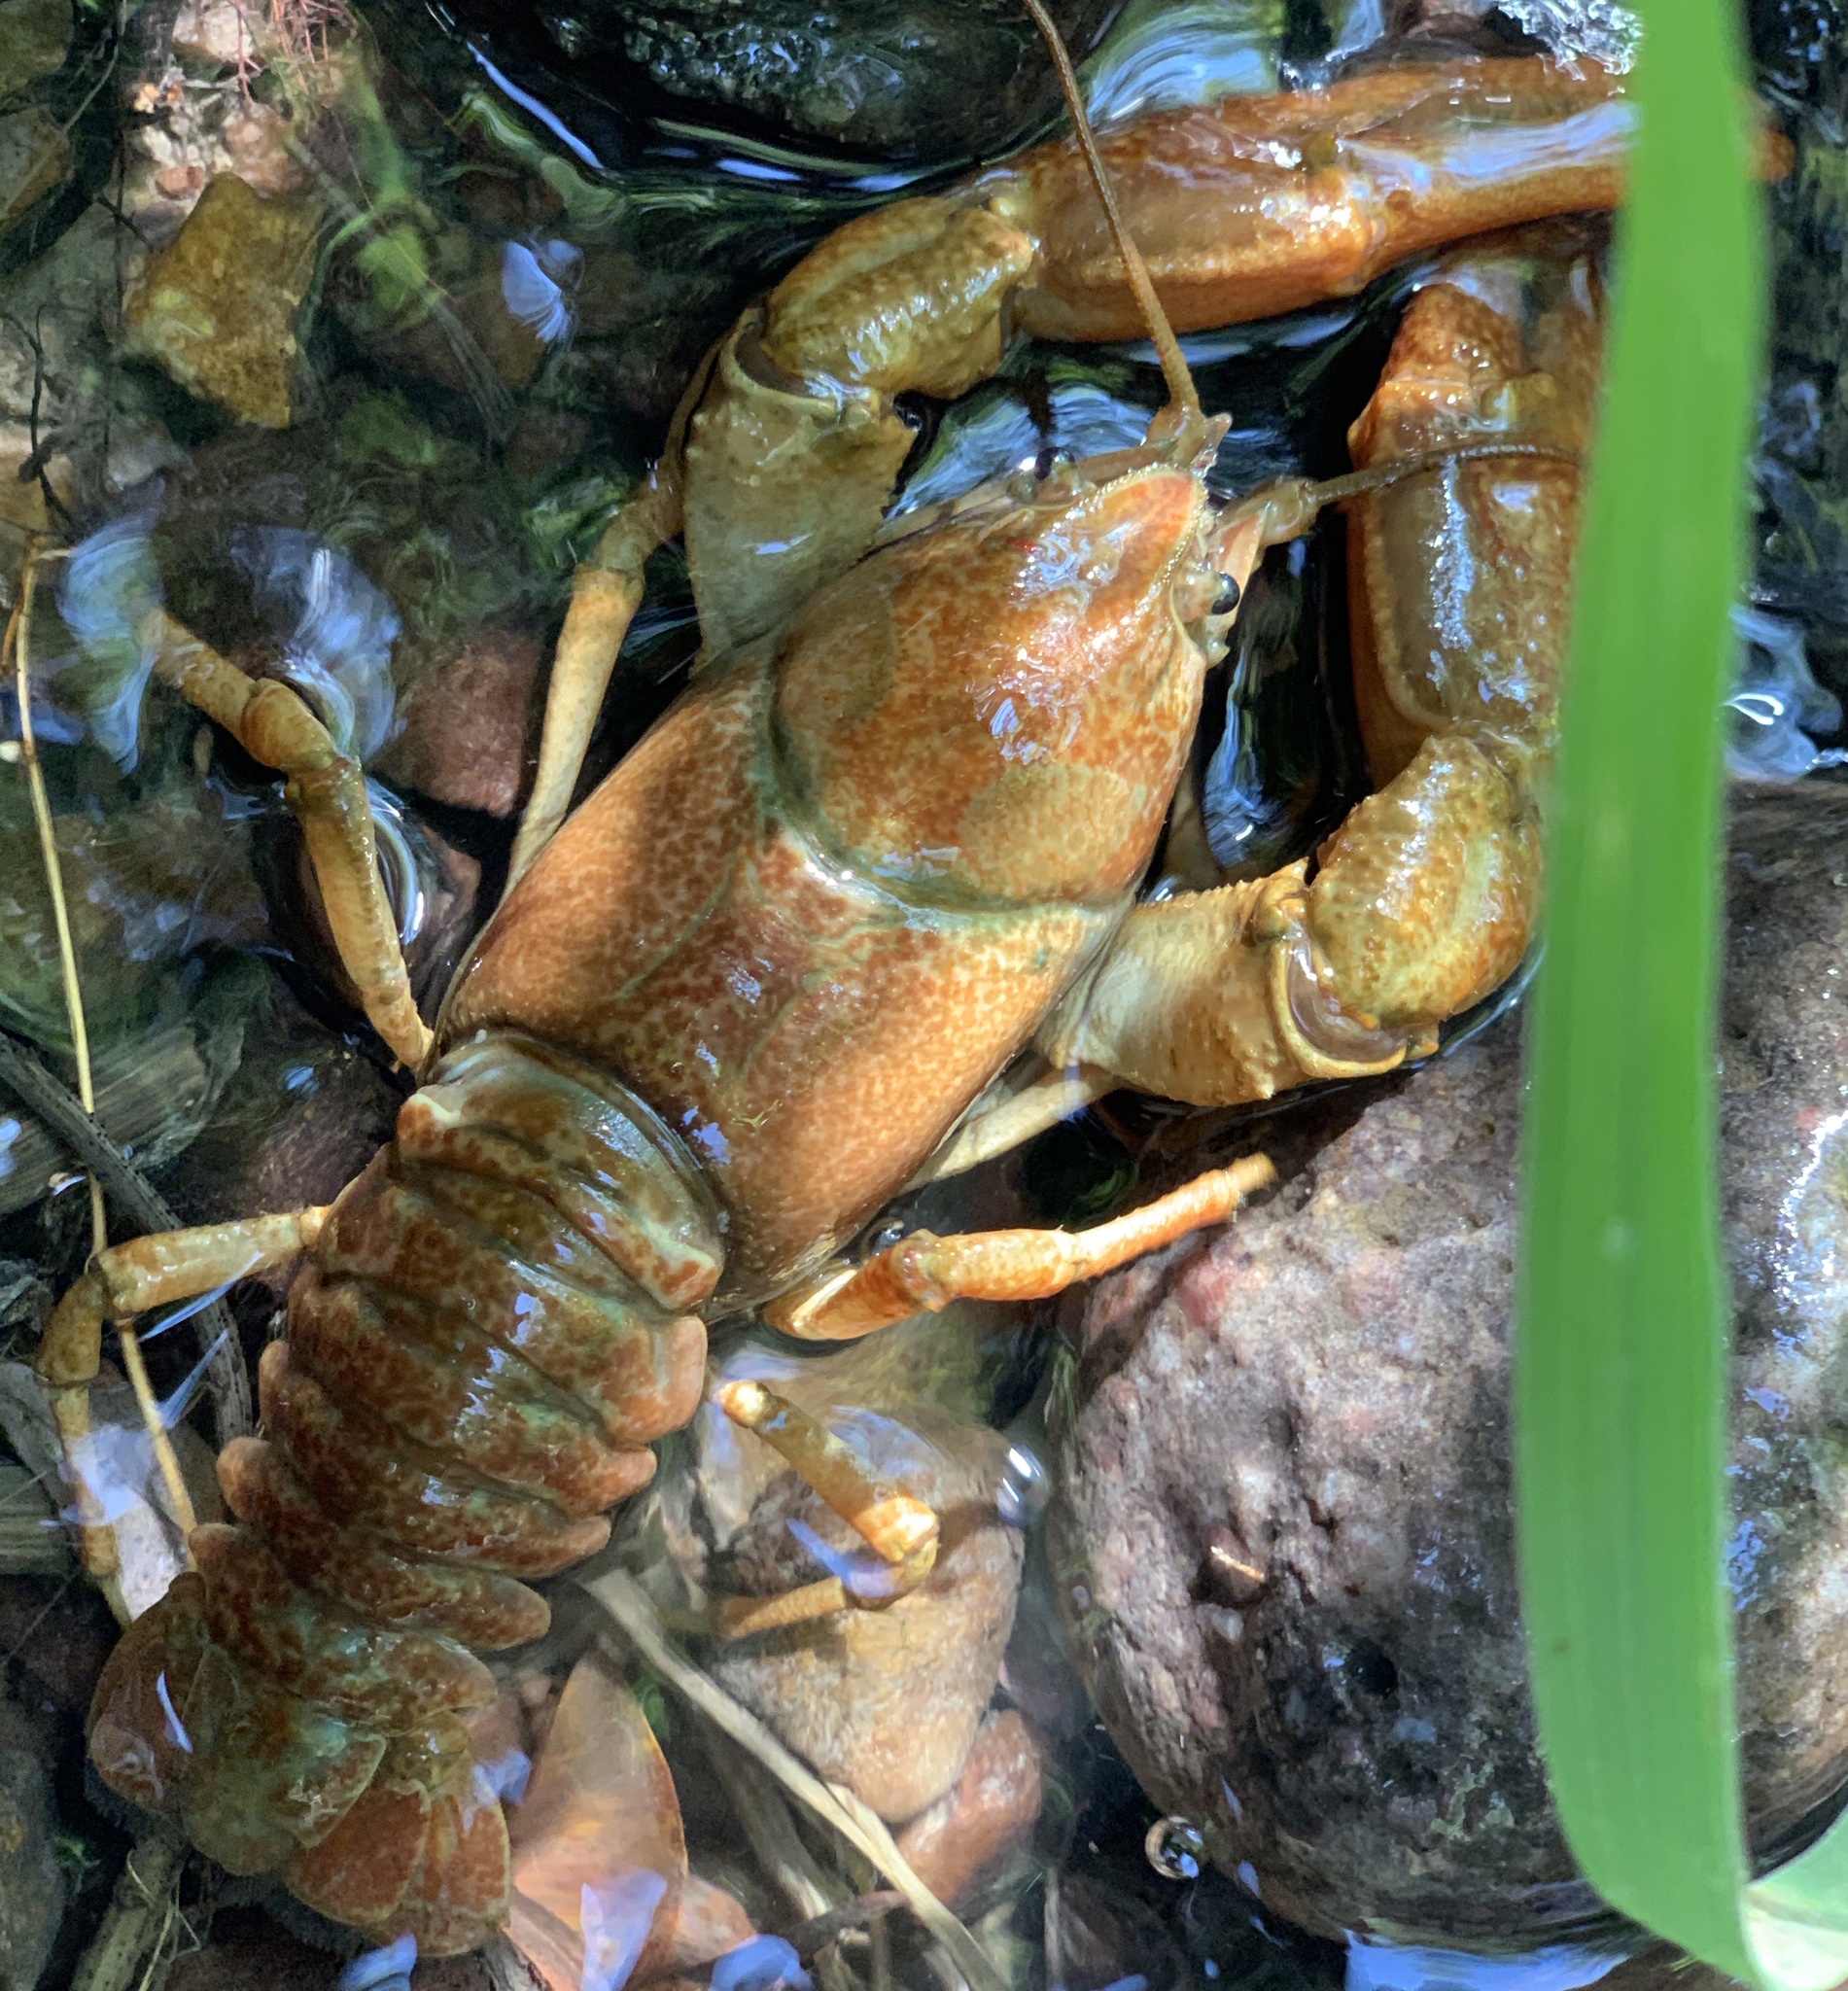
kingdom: Animalia
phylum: Arthropoda
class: Malacostraca
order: Decapoda
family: Astacidae
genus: Pacifastacus
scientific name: Pacifastacus gambelii
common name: Pilose crayfish
